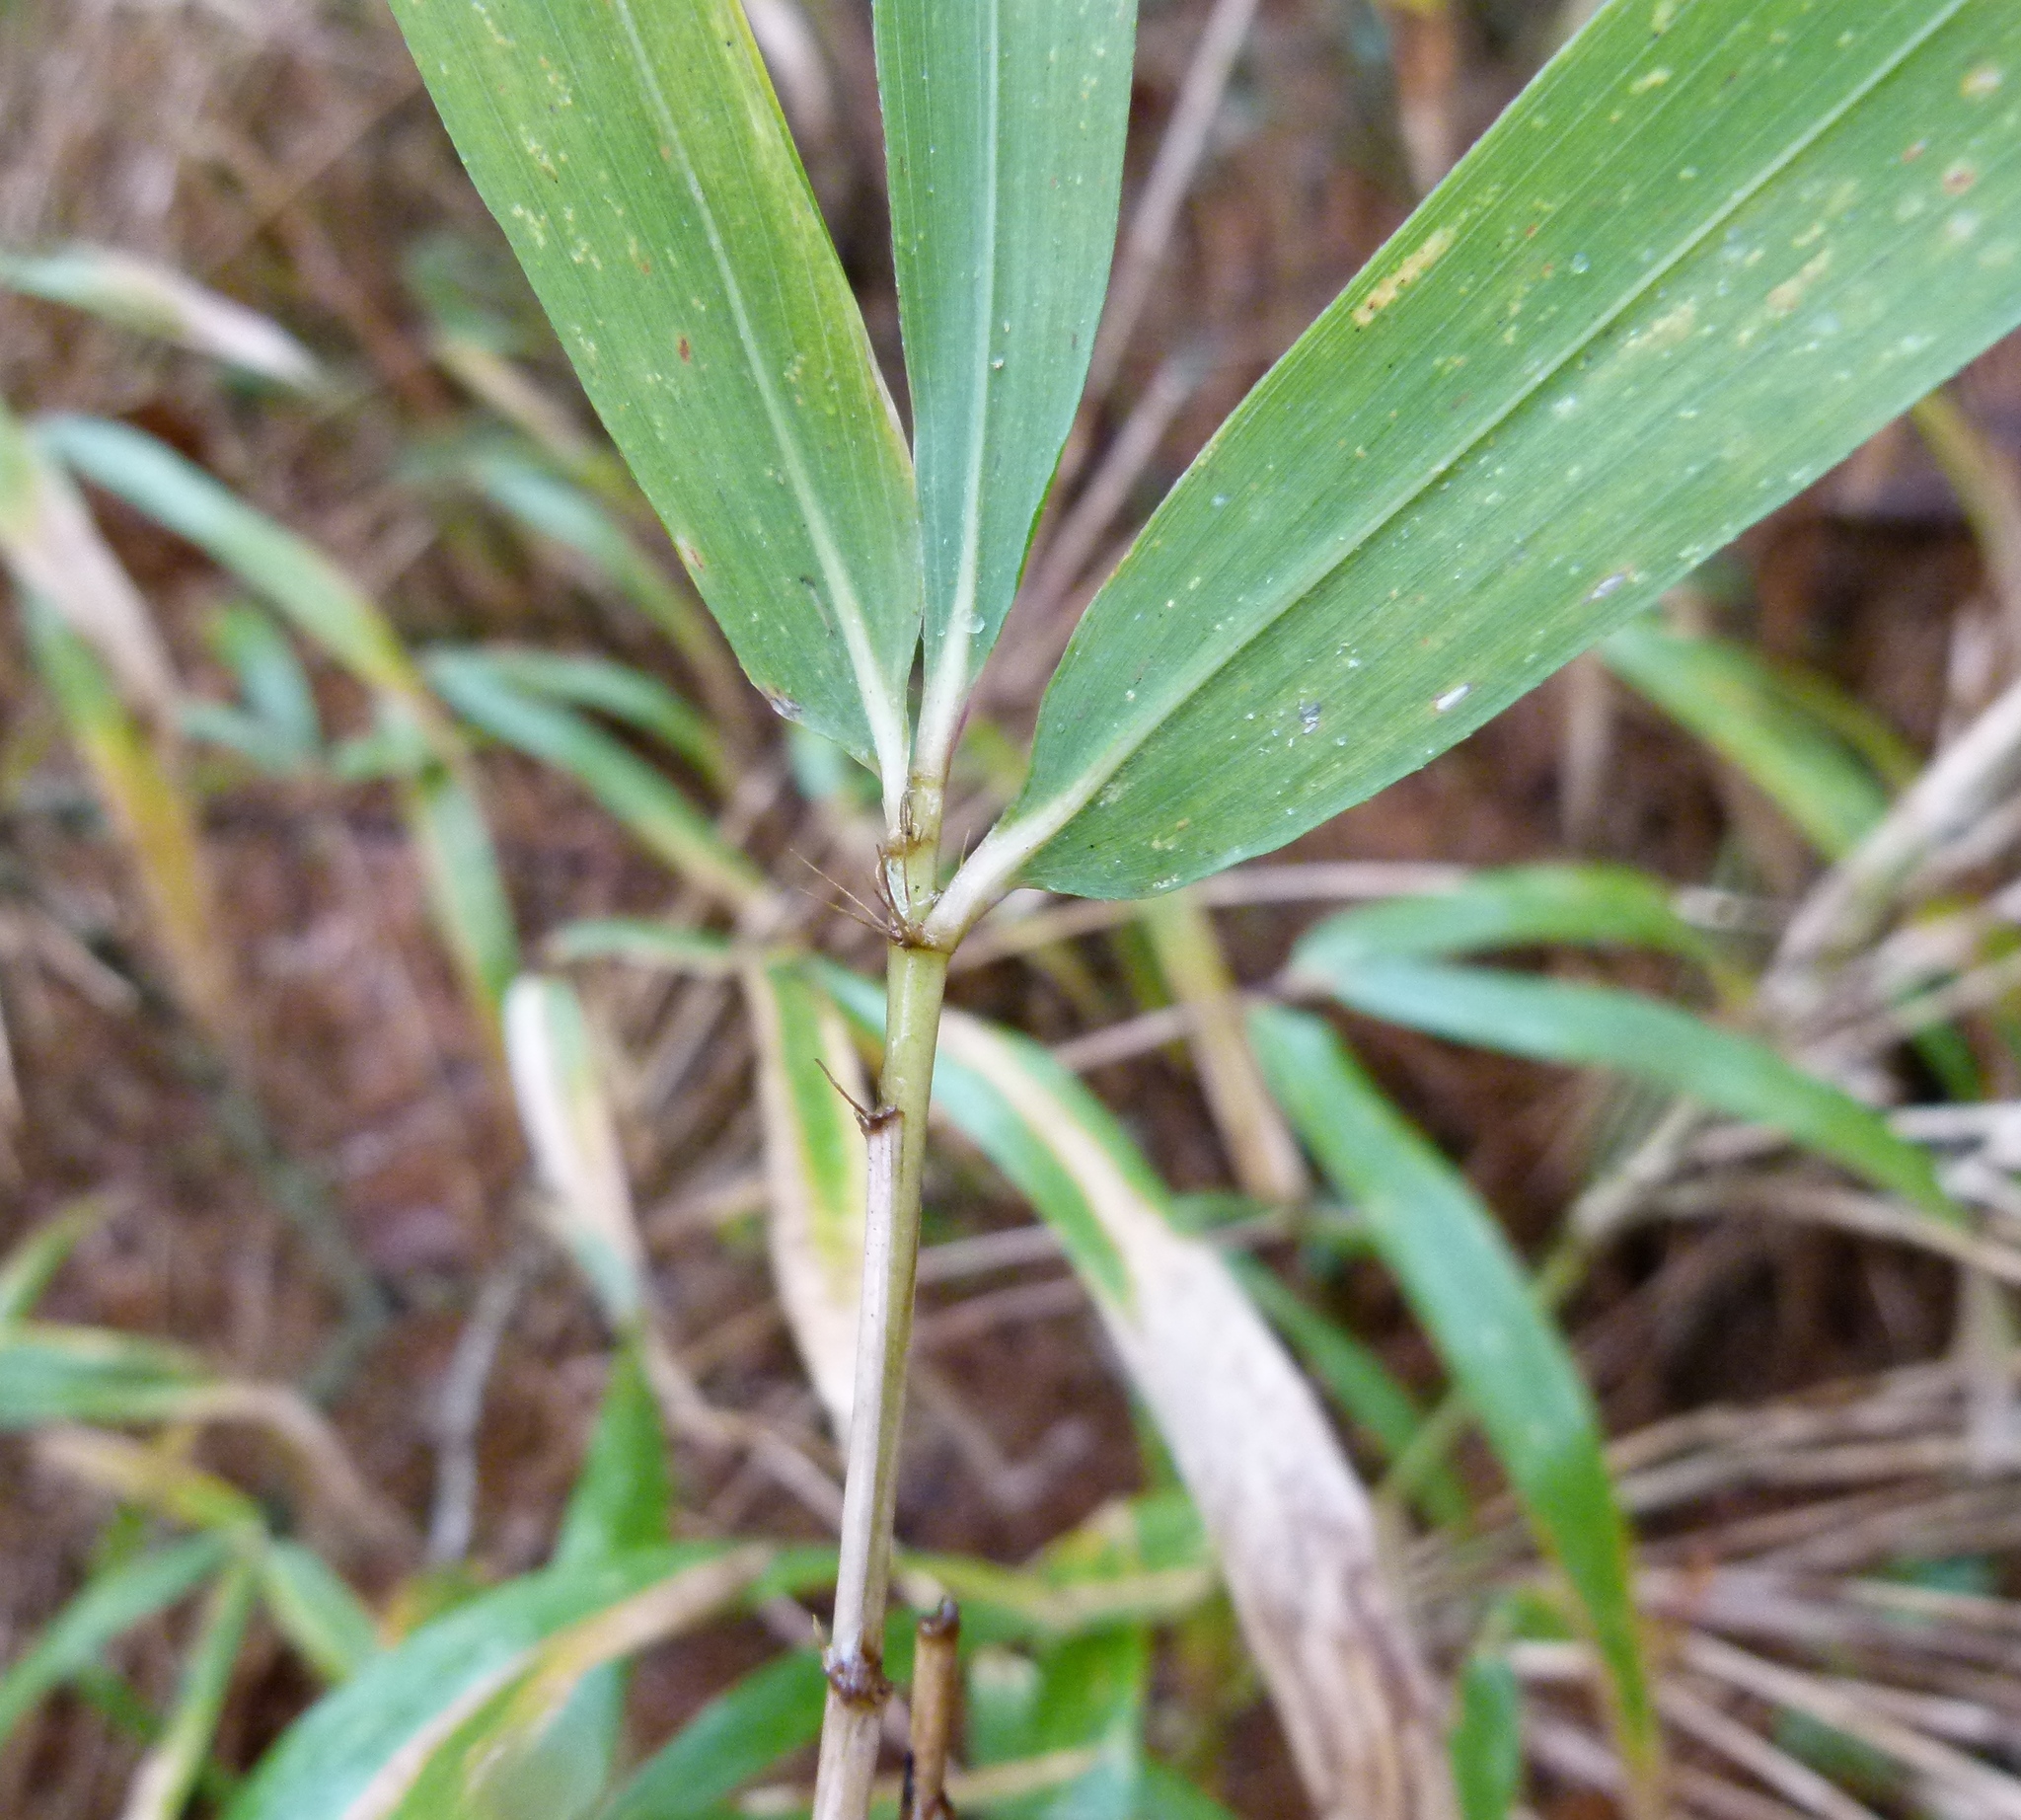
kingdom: Plantae
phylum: Tracheophyta
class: Liliopsida
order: Poales
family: Poaceae
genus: Arundinaria
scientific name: Arundinaria gigantea
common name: Giant cane
